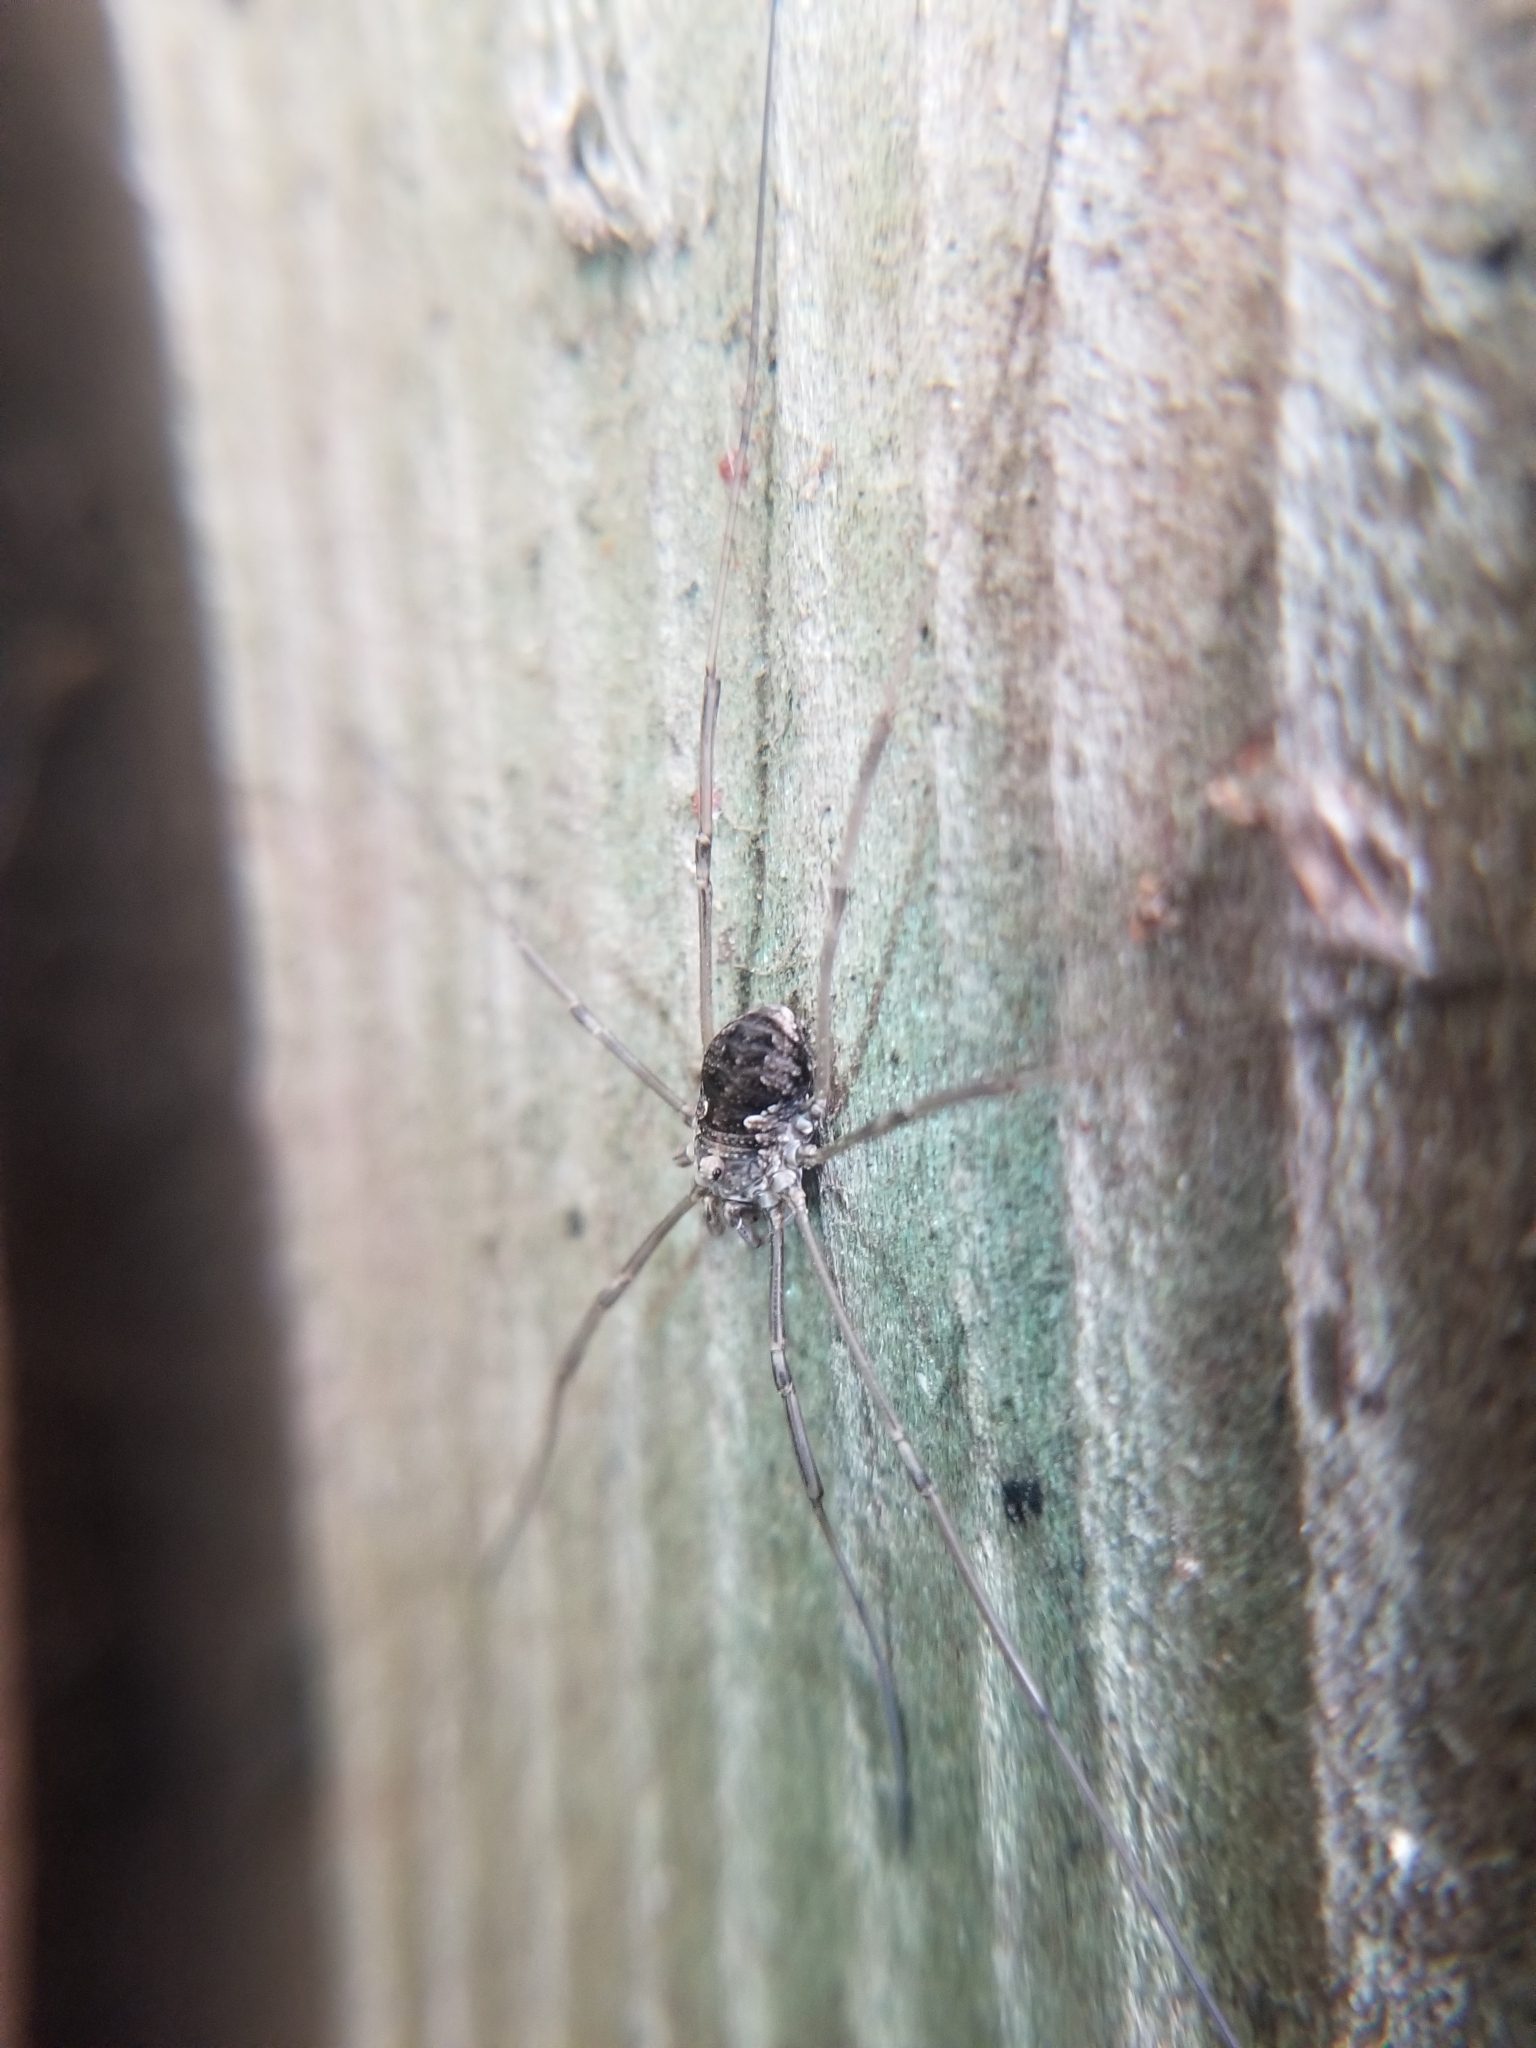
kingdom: Animalia
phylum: Arthropoda
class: Arachnida
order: Opiliones
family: Phalangiidae
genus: Phalangium
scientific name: Phalangium opilio
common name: Daddy longleg
